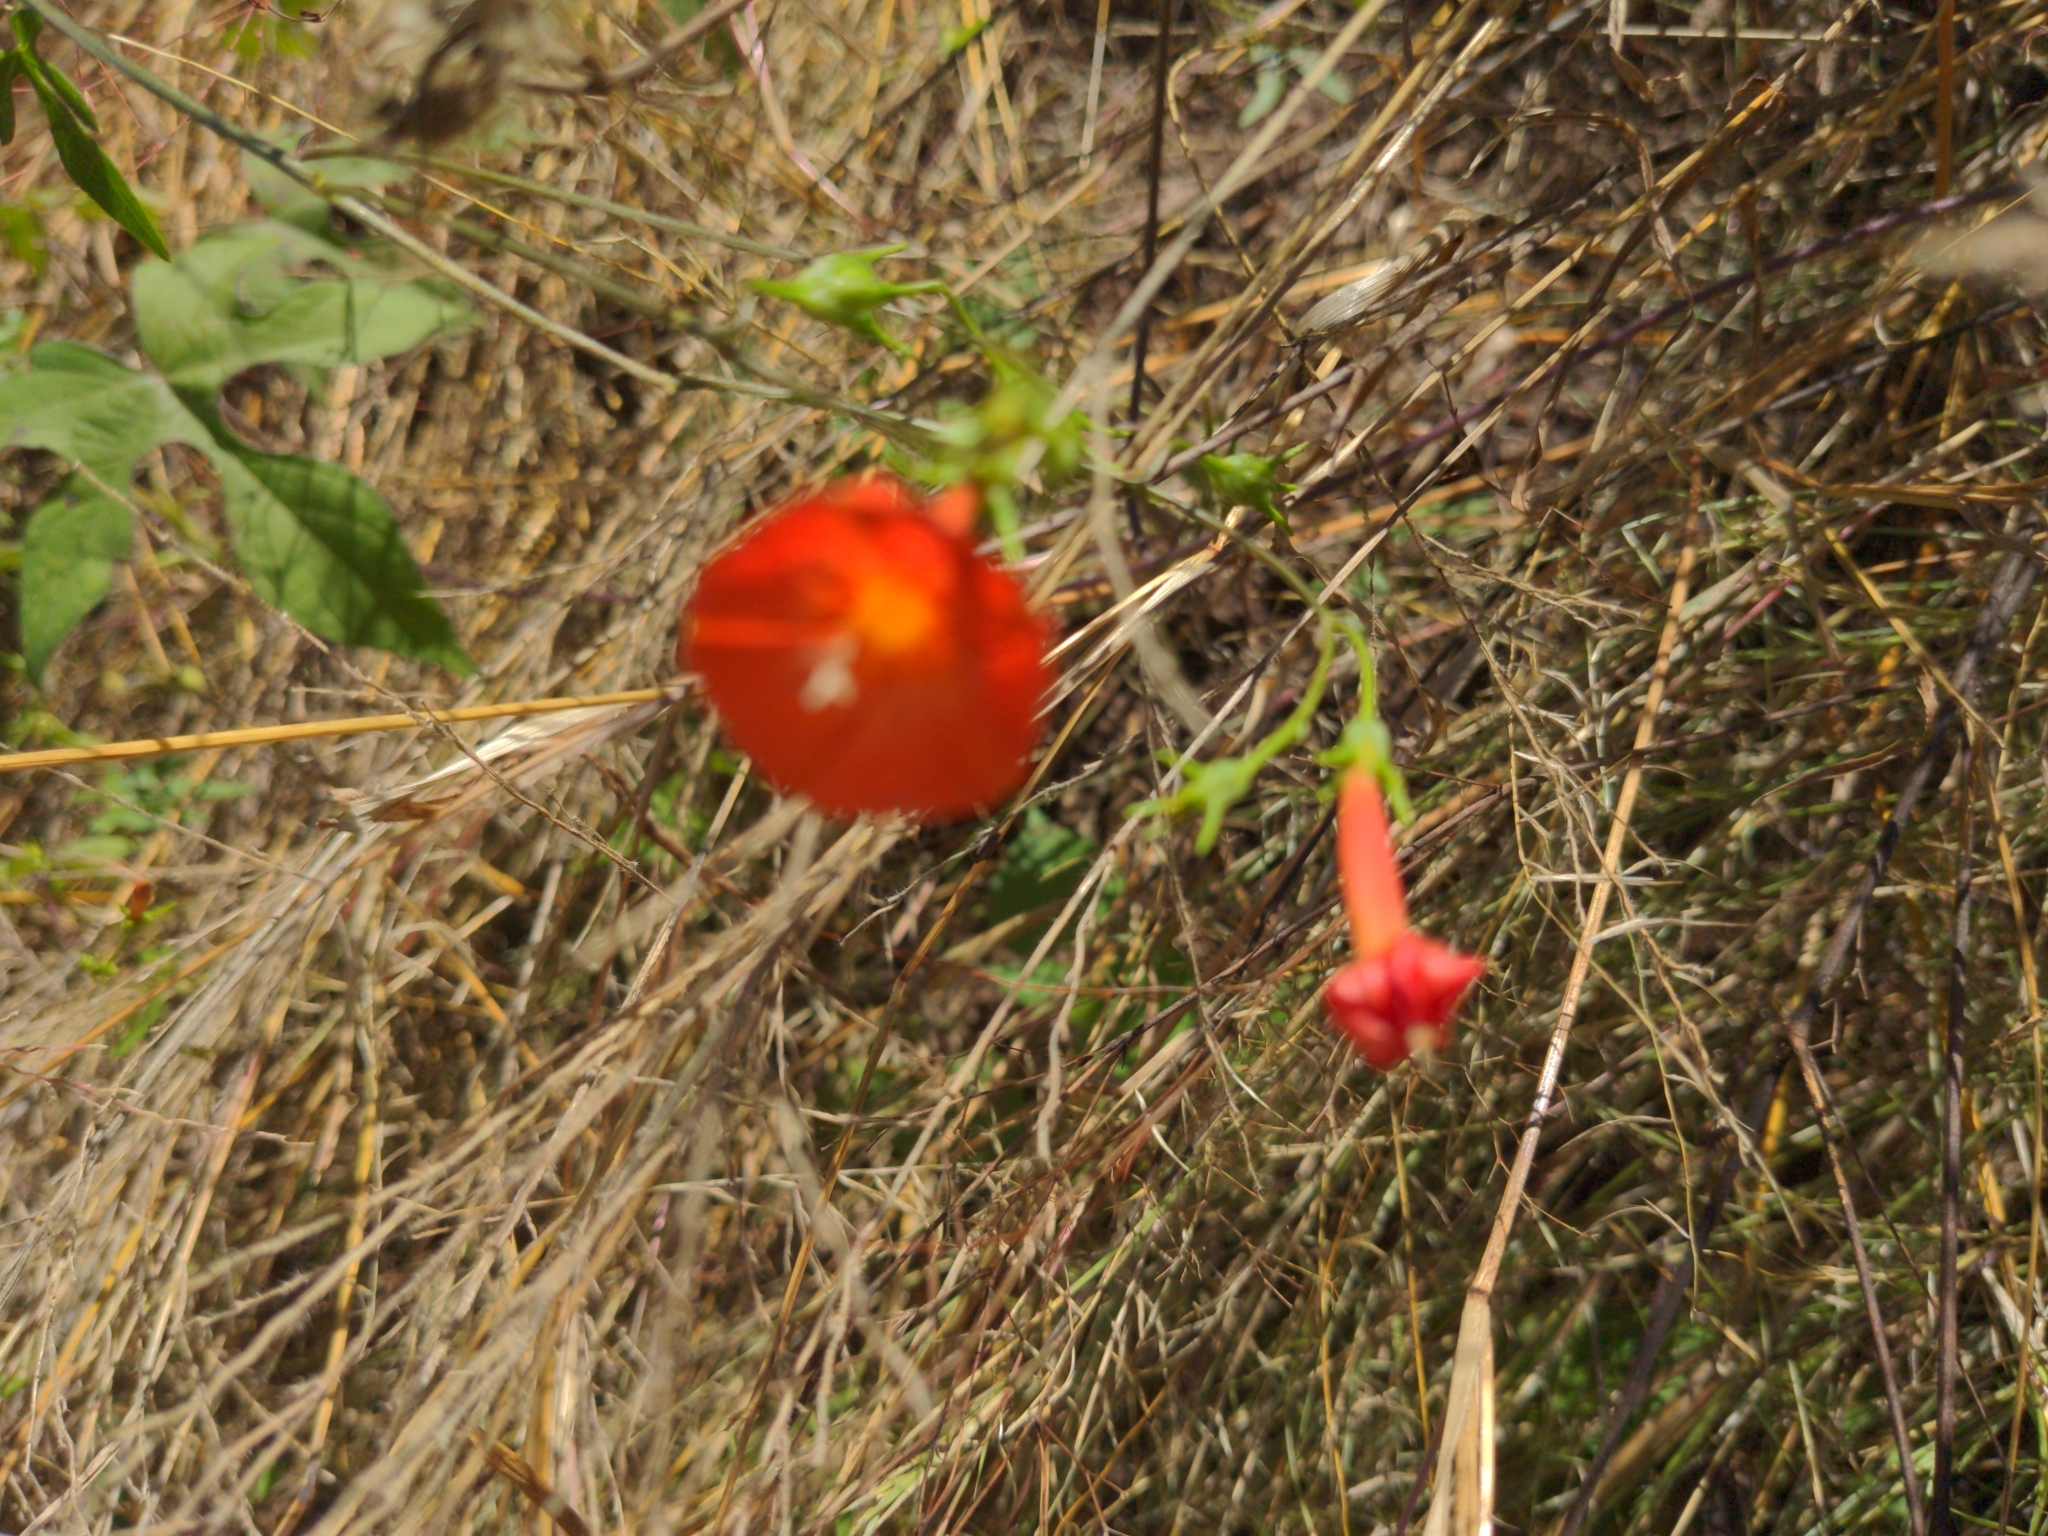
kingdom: Plantae
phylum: Tracheophyta
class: Magnoliopsida
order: Solanales
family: Convolvulaceae
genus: Ipomoea
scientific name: Ipomoea cristulata
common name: Trans-pecos morning-glory
